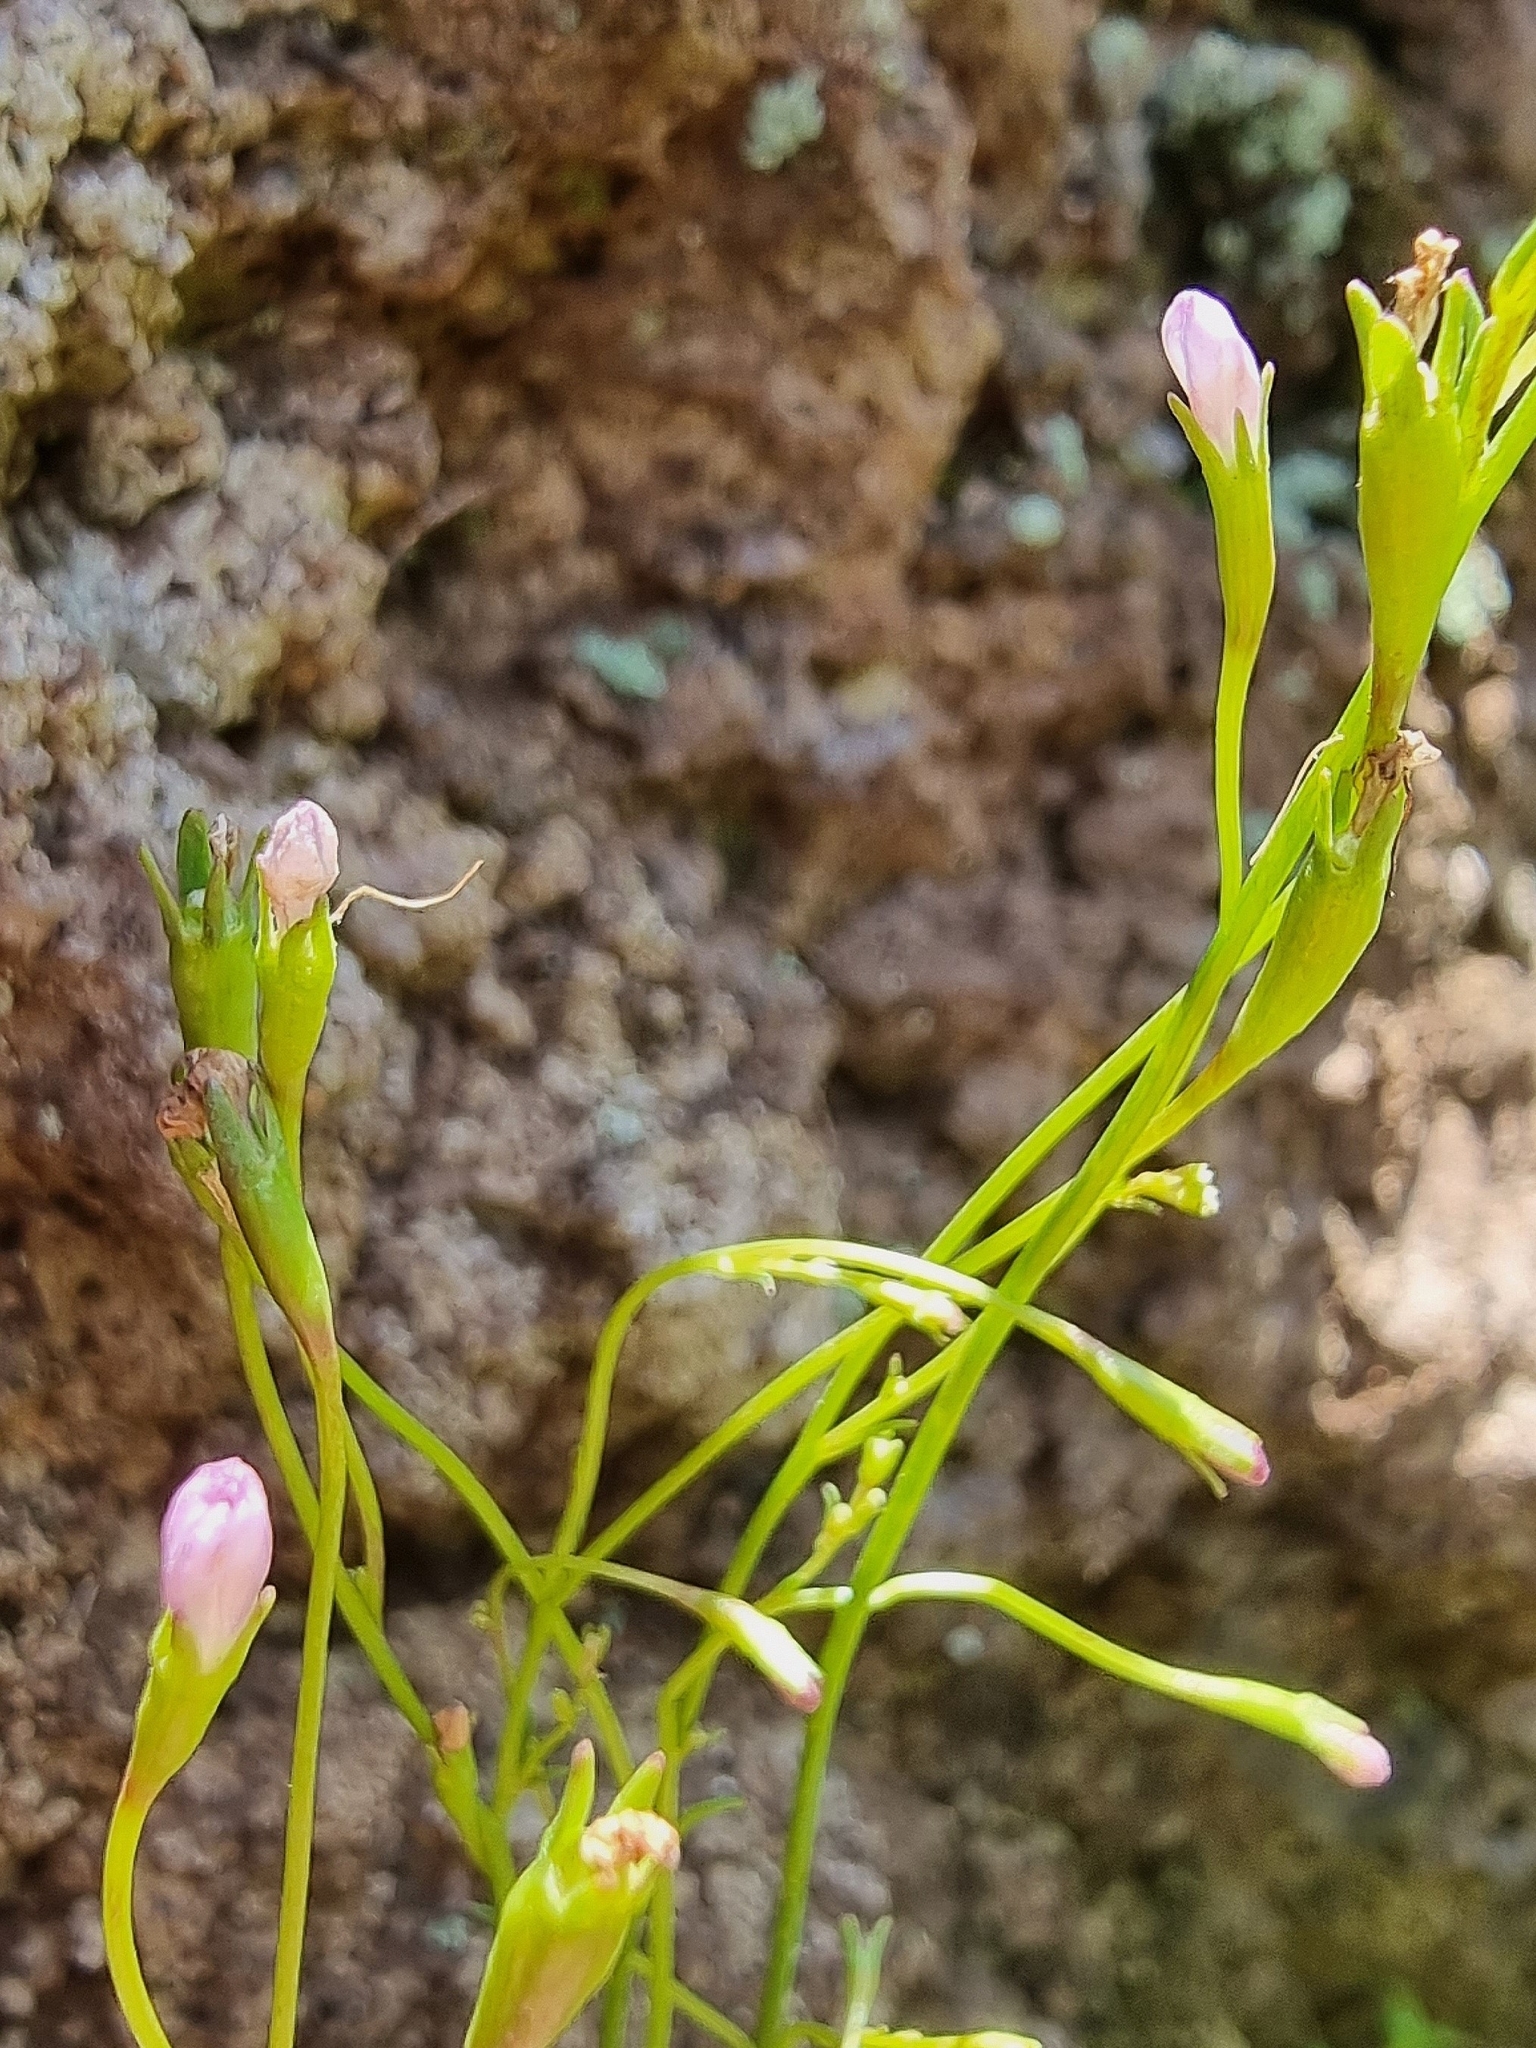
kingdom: Plantae
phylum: Tracheophyta
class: Magnoliopsida
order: Asterales
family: Campanulaceae
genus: Wahlenbergia
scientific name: Wahlenbergia lobelioides
